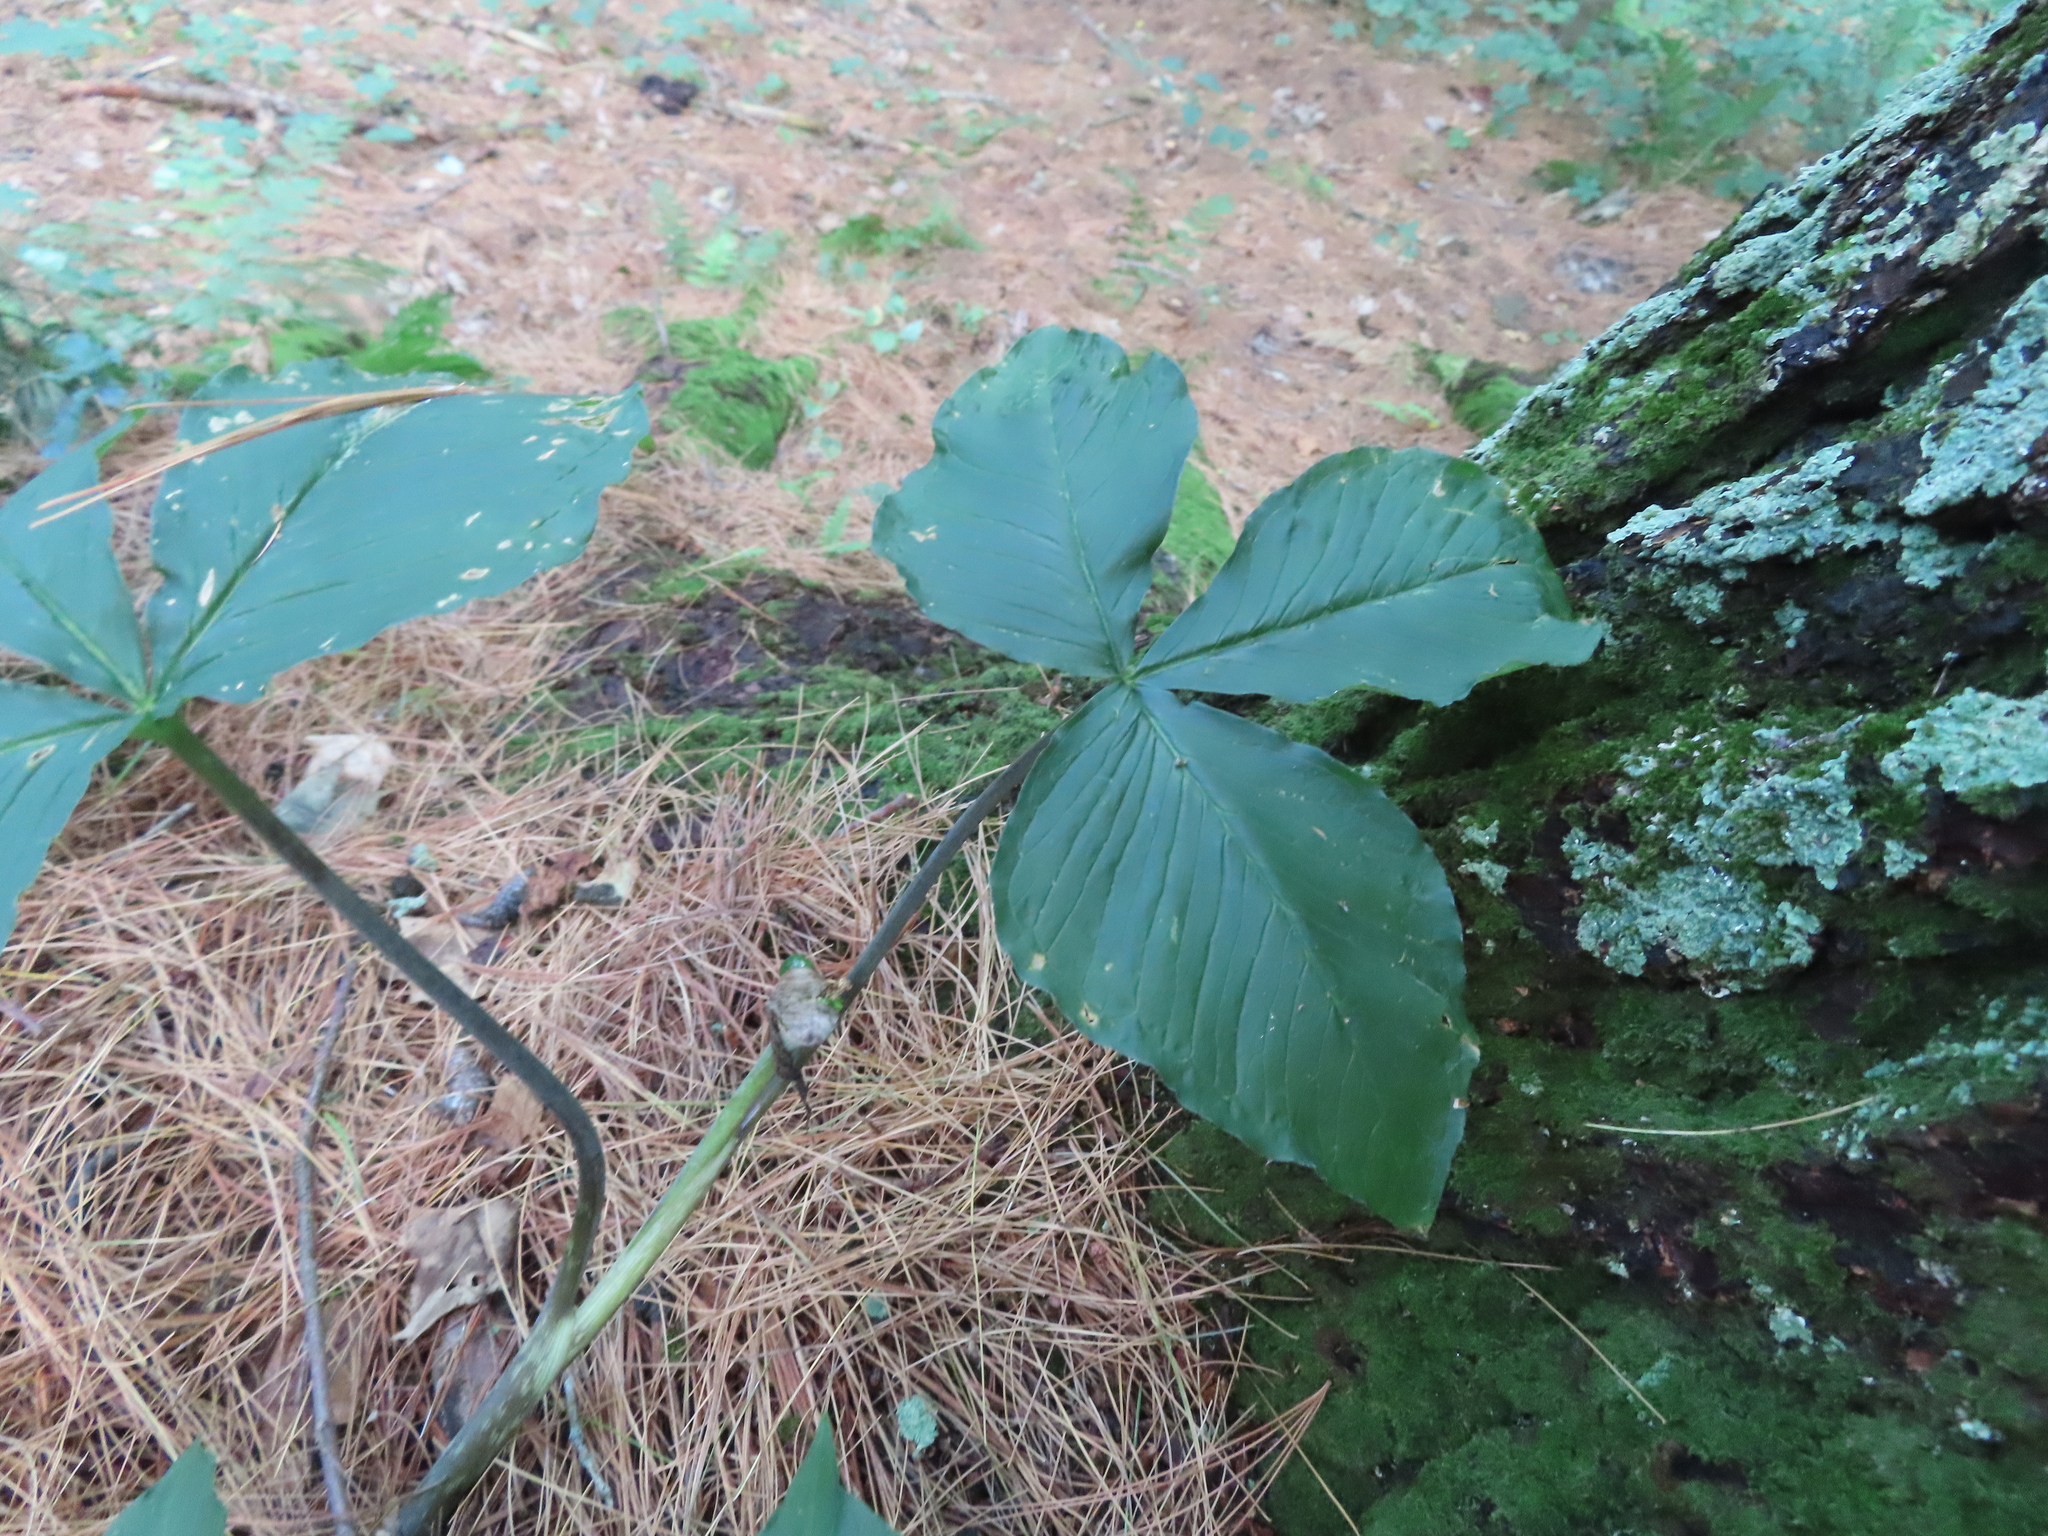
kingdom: Plantae
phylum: Tracheophyta
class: Liliopsida
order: Alismatales
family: Araceae
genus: Arisaema
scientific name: Arisaema triphyllum
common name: Jack-in-the-pulpit
